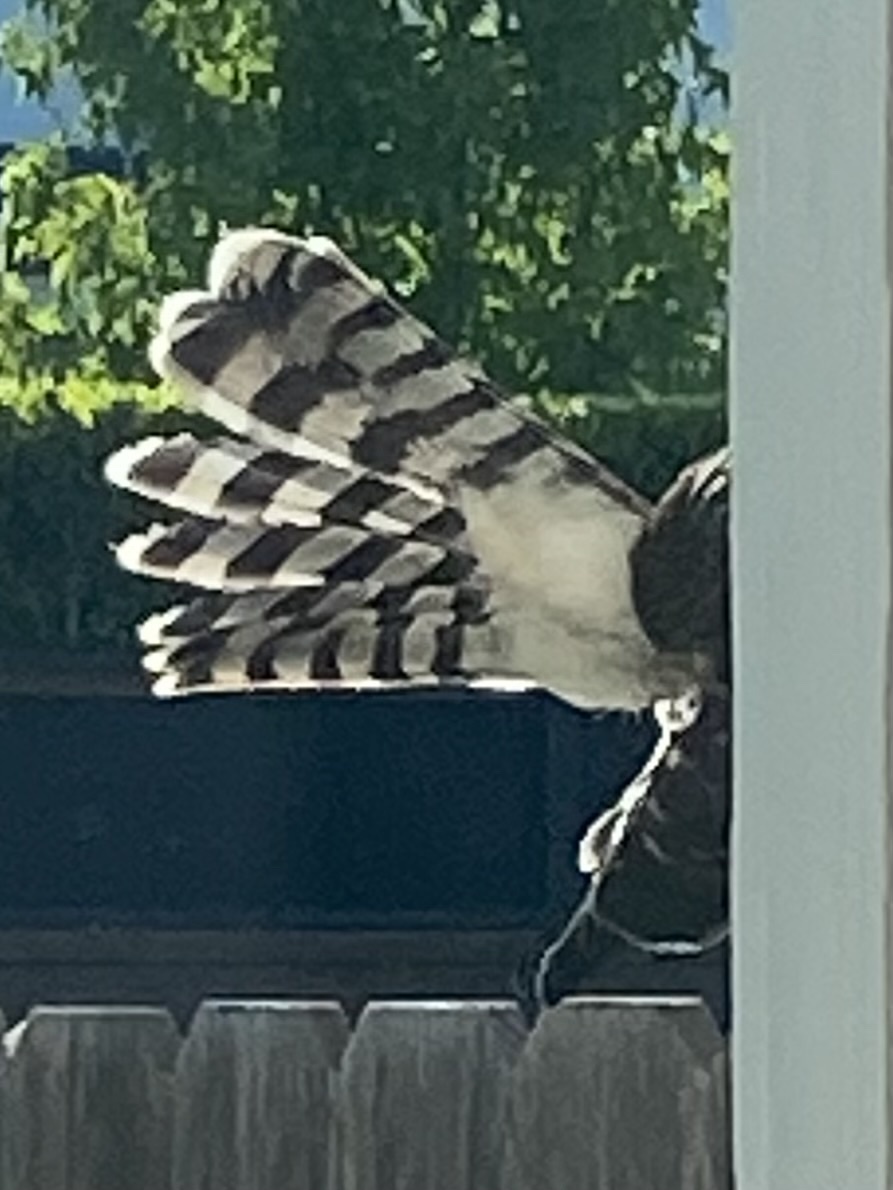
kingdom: Animalia
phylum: Chordata
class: Aves
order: Accipitriformes
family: Accipitridae
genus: Accipiter
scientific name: Accipiter cooperii
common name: Cooper's hawk
